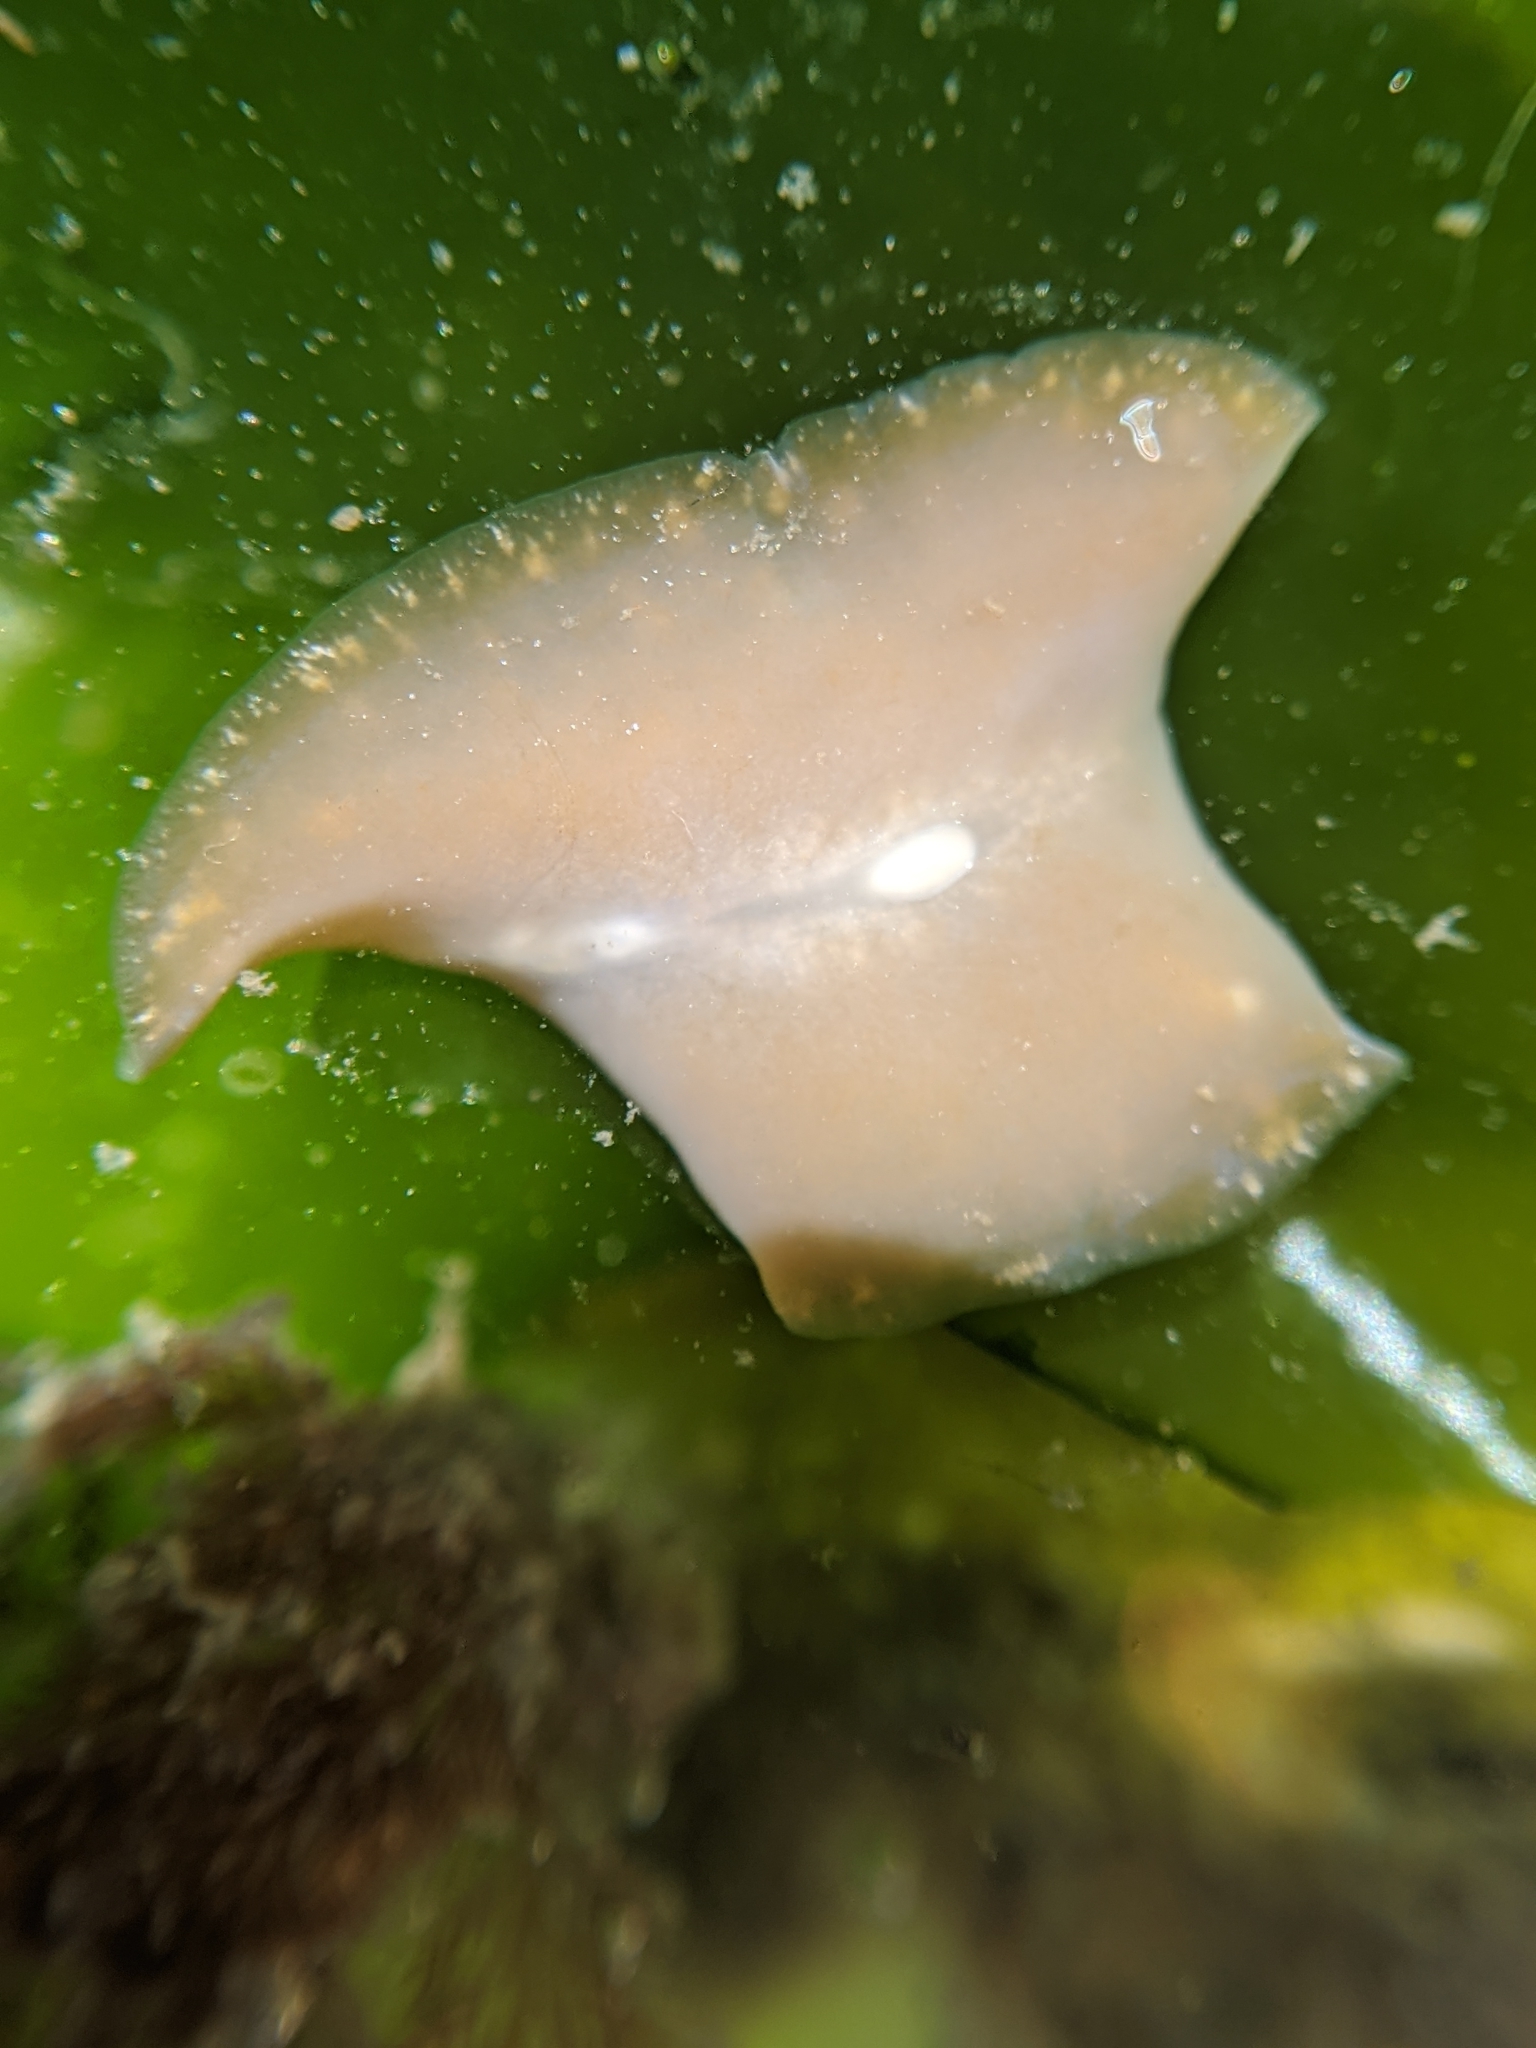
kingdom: Animalia
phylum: Platyhelminthes
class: Turbellaria
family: Pseudocerotidae
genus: Pseudoceros
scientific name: Pseudoceros canadensis
